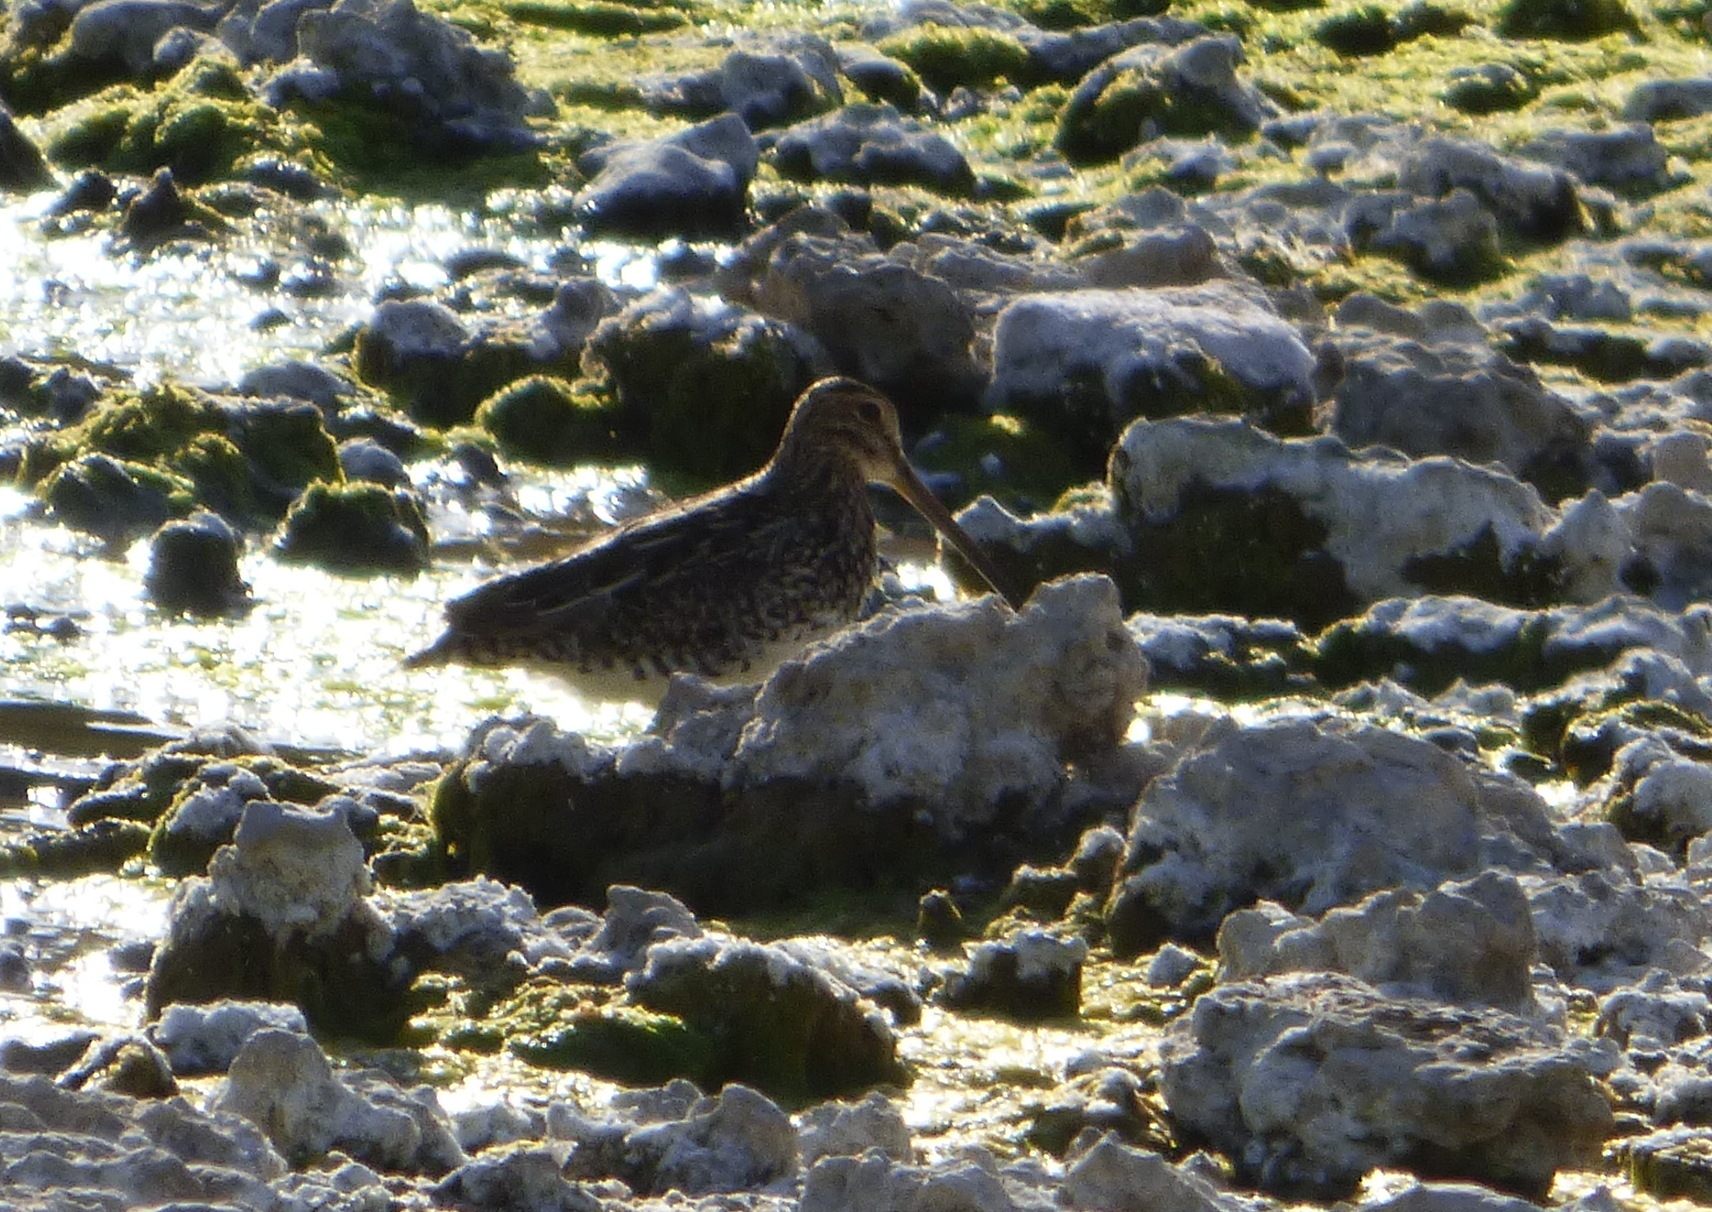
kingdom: Animalia
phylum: Chordata
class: Aves
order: Charadriiformes
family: Scolopacidae
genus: Gallinago
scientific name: Gallinago paraguaiae
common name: South american snipe
